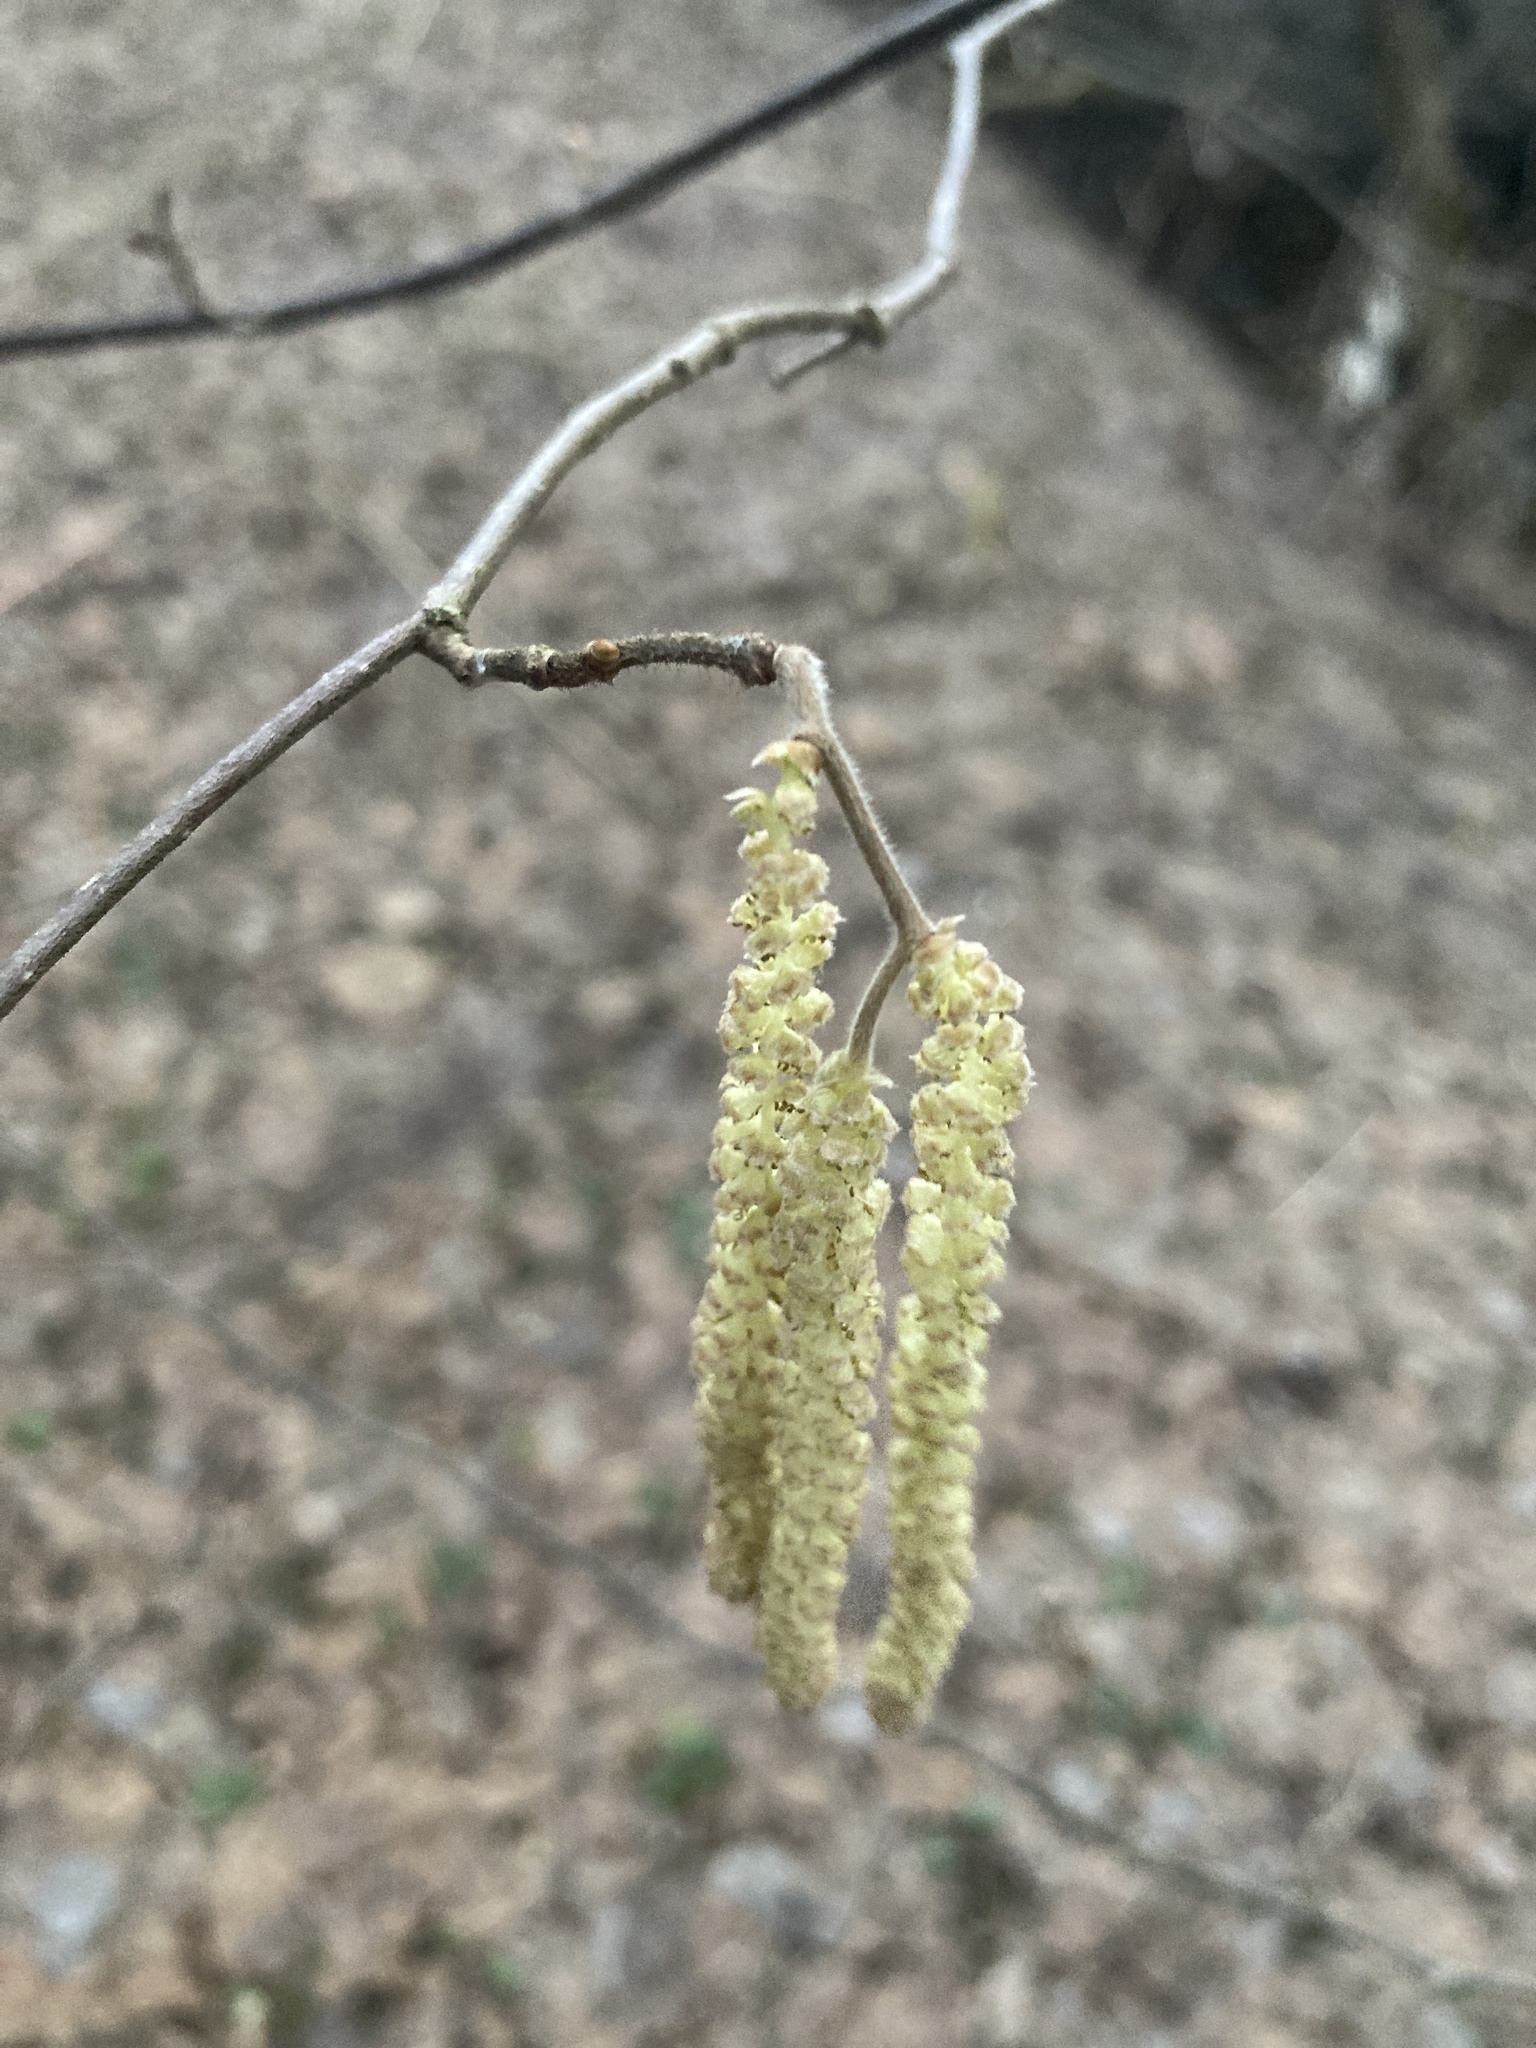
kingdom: Plantae
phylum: Tracheophyta
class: Magnoliopsida
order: Fagales
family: Betulaceae
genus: Corylus
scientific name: Corylus avellana
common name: European hazel
